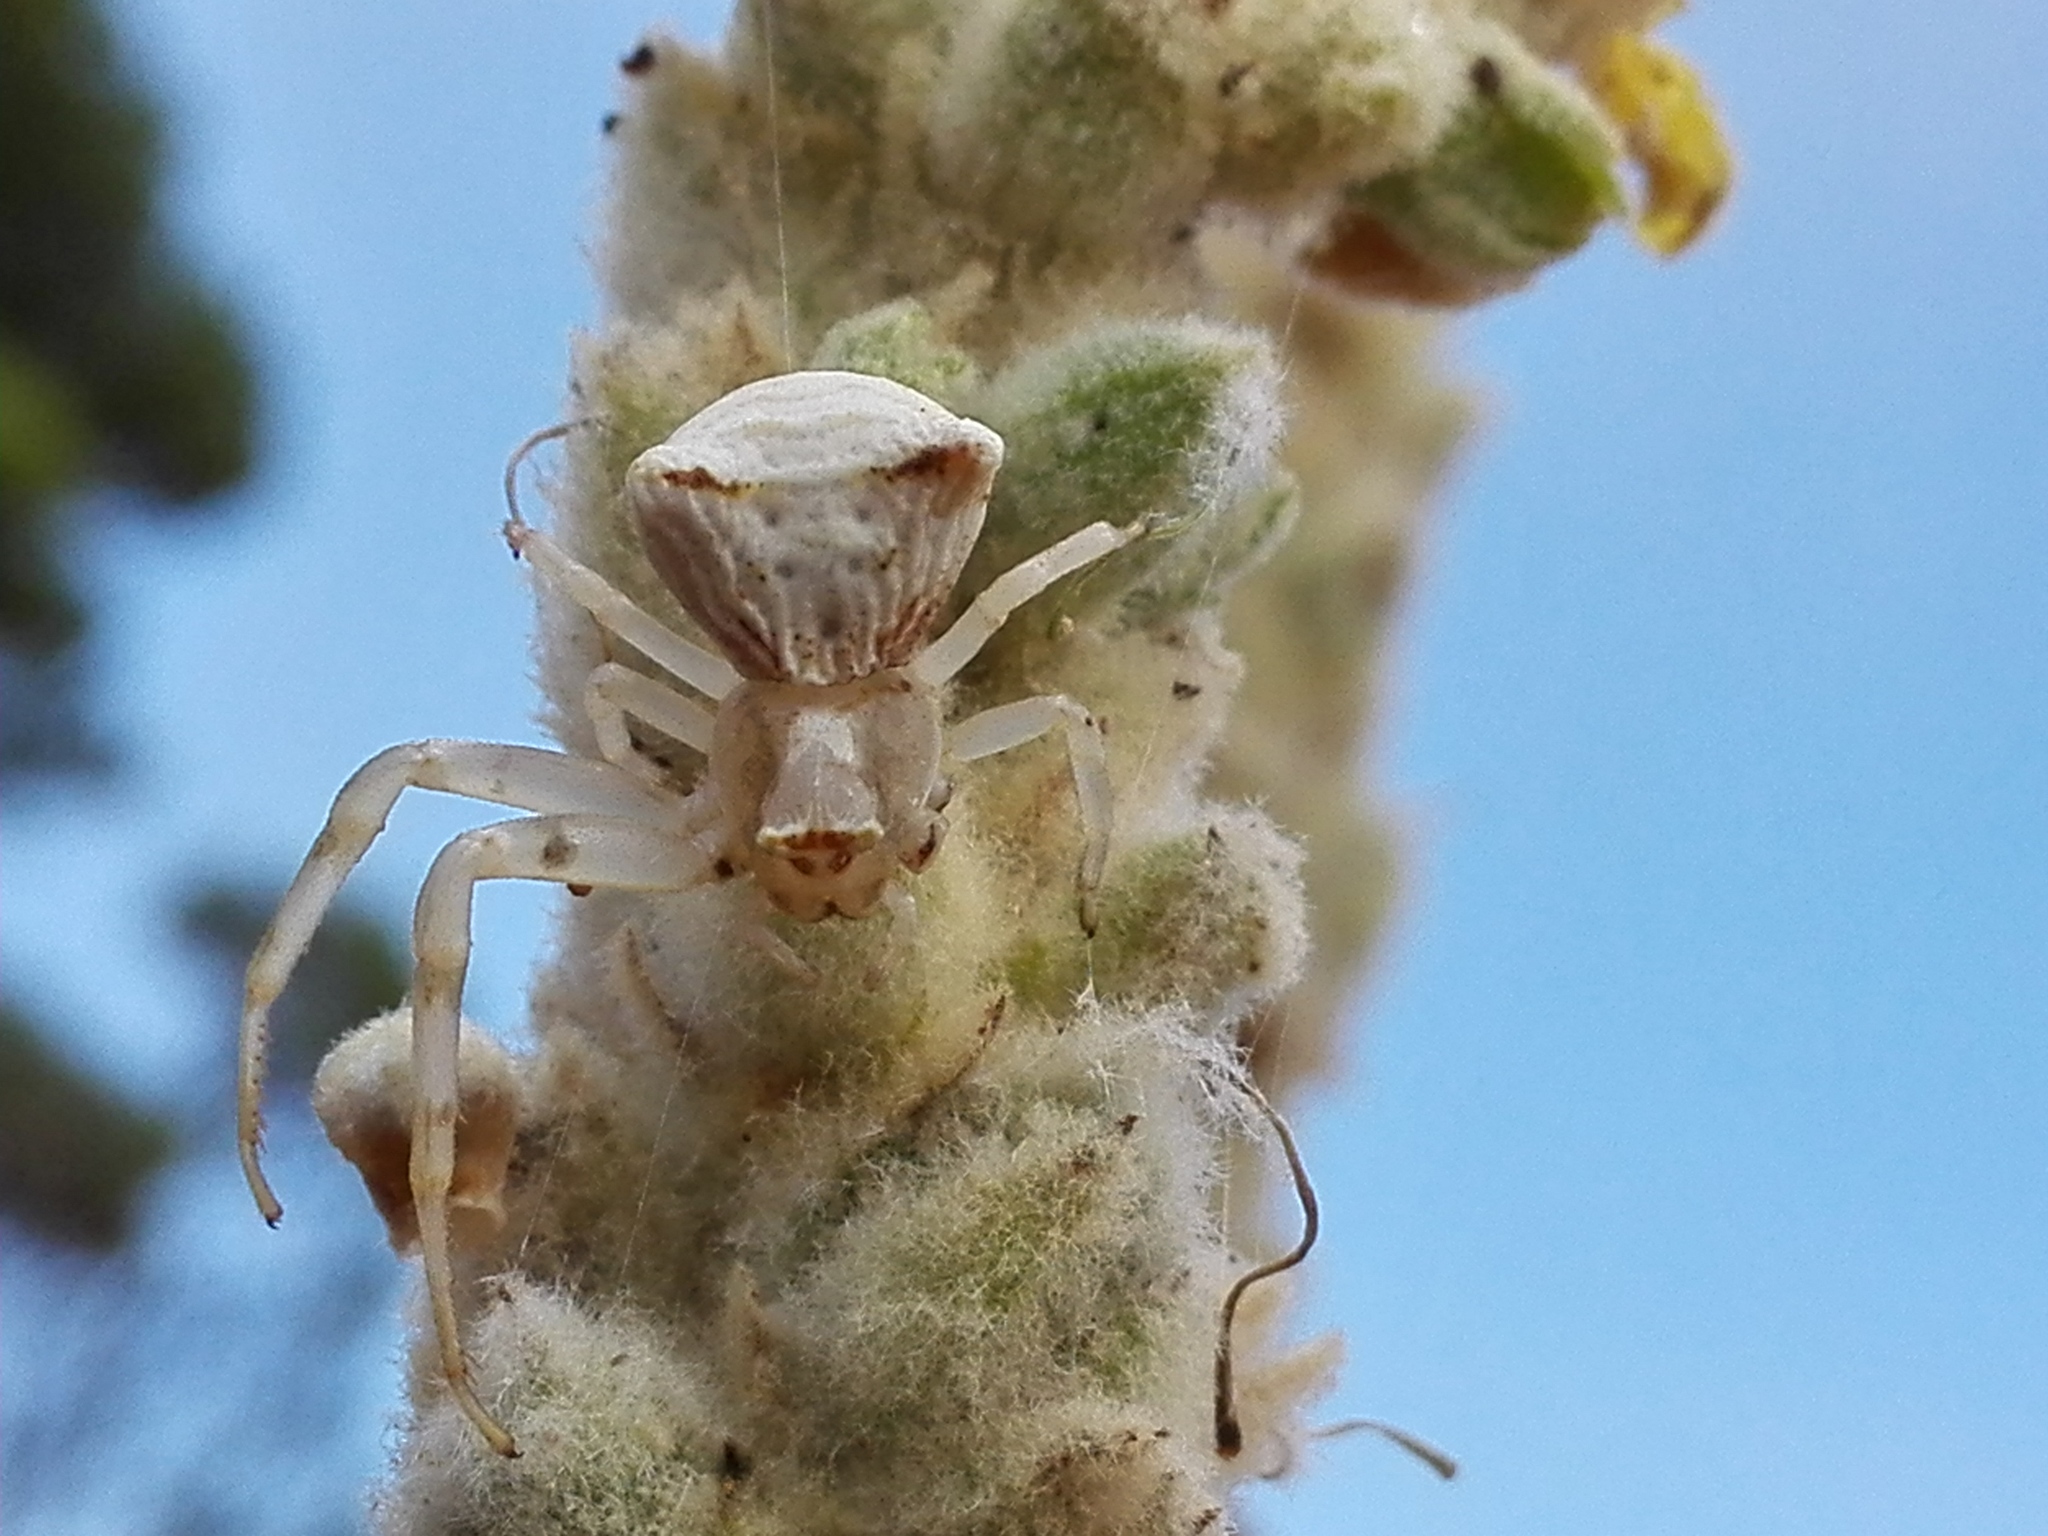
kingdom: Animalia
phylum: Arthropoda
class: Arachnida
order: Araneae
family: Thomisidae
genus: Thomisus
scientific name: Thomisus onustus
